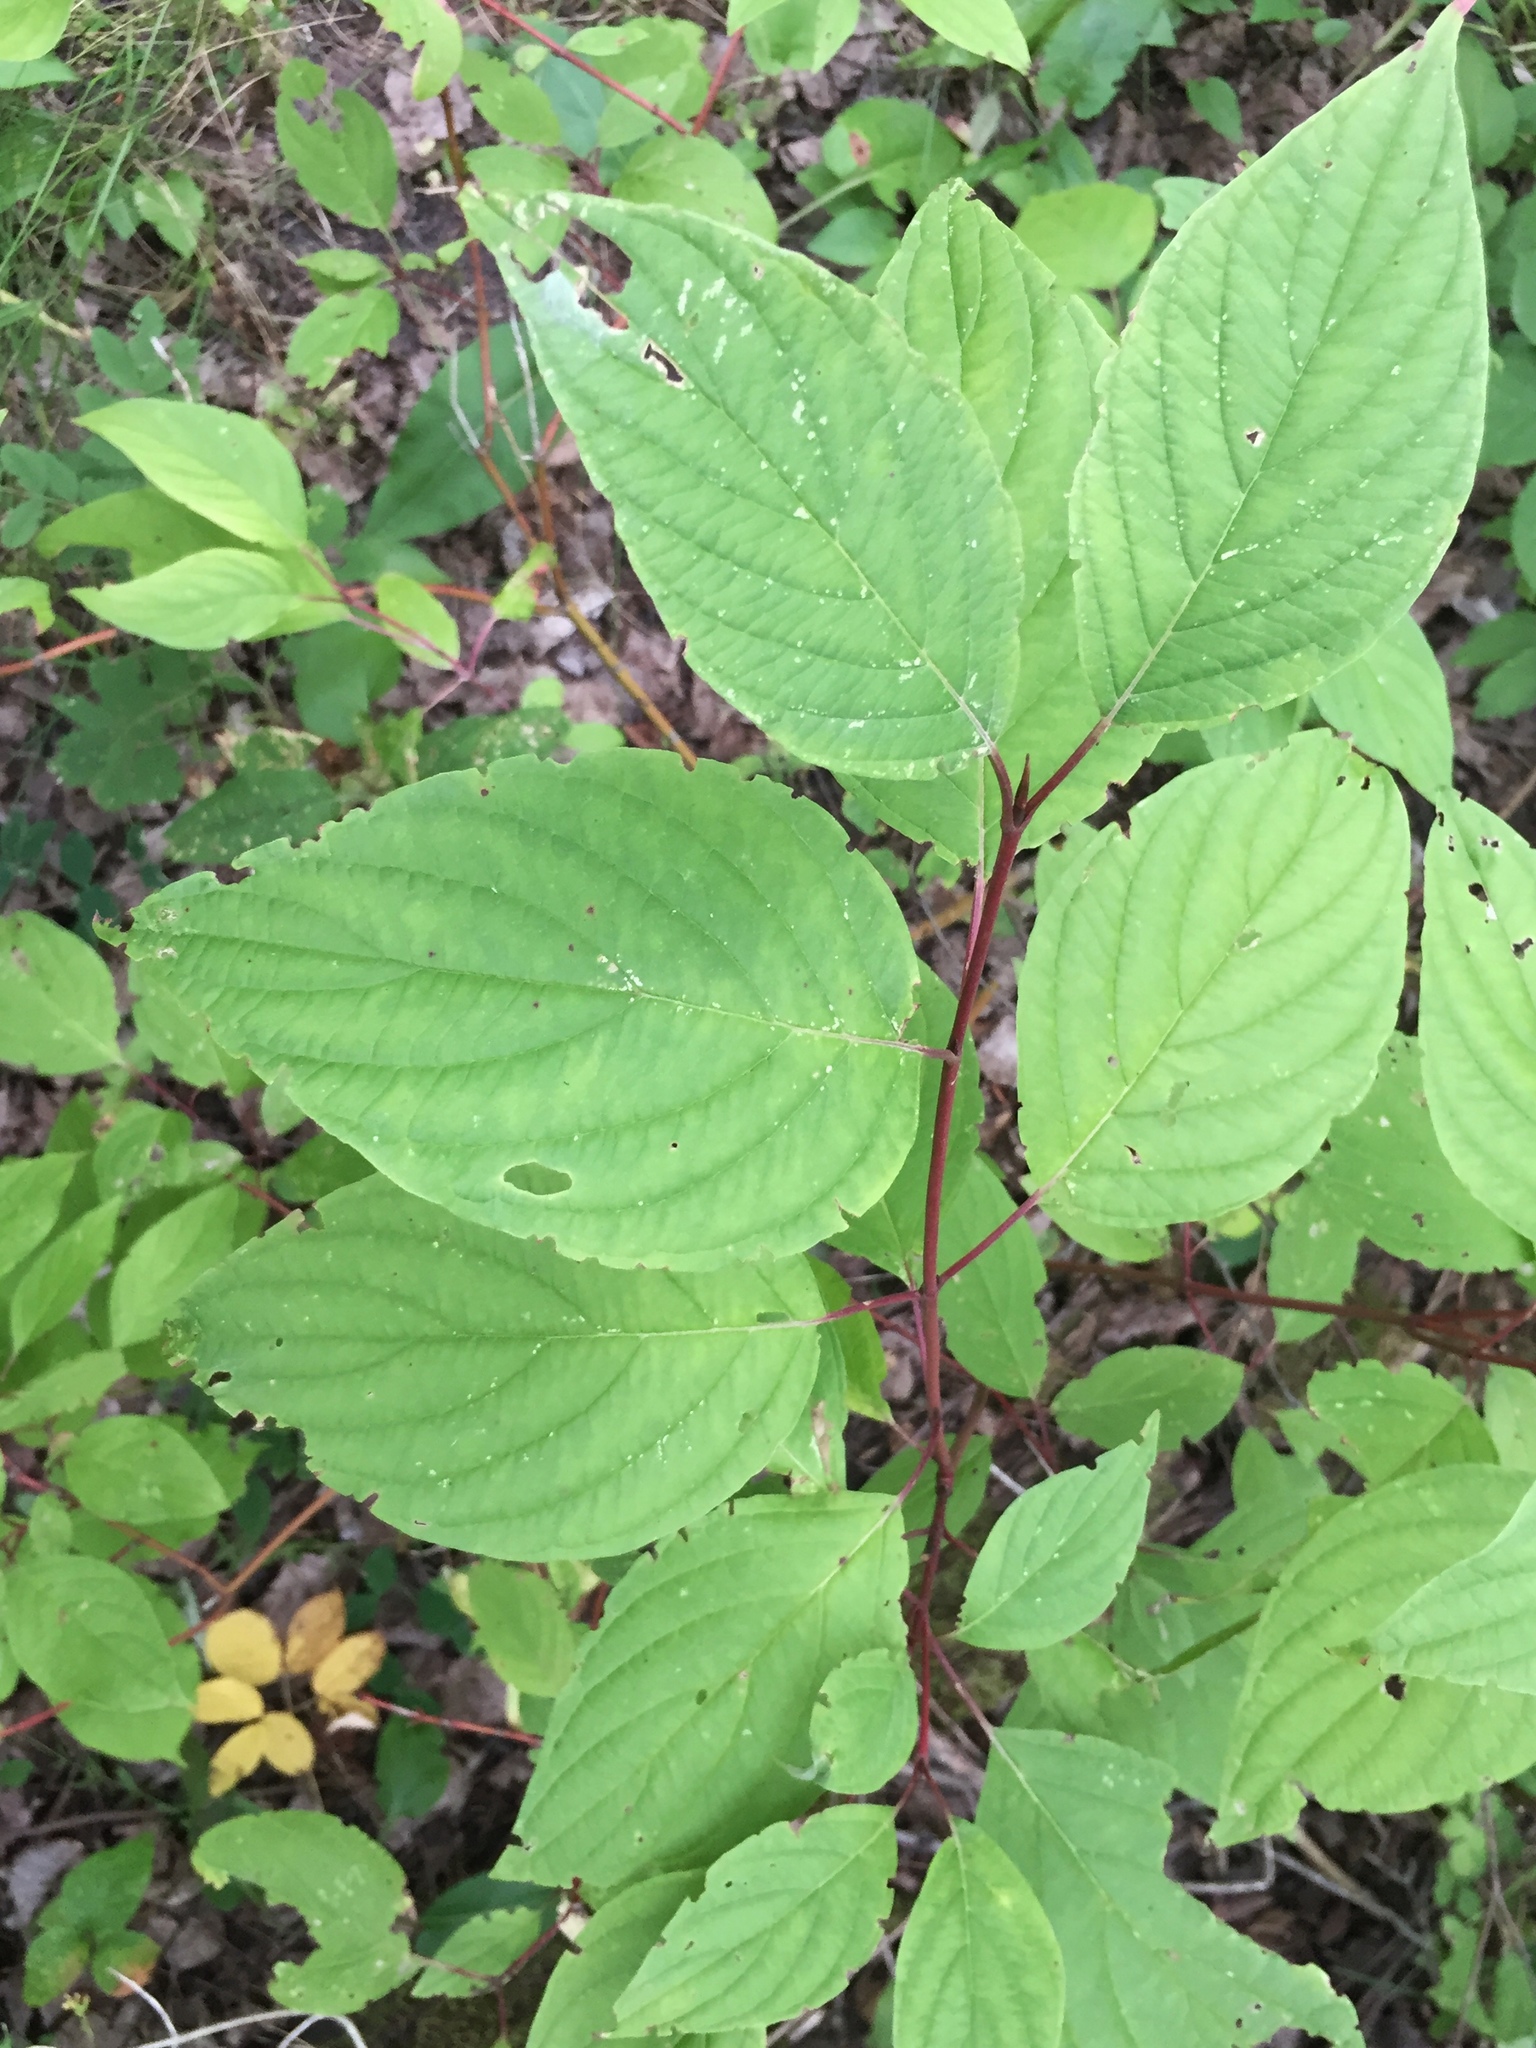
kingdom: Plantae
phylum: Tracheophyta
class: Magnoliopsida
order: Cornales
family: Cornaceae
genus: Cornus
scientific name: Cornus sericea
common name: Red-osier dogwood
